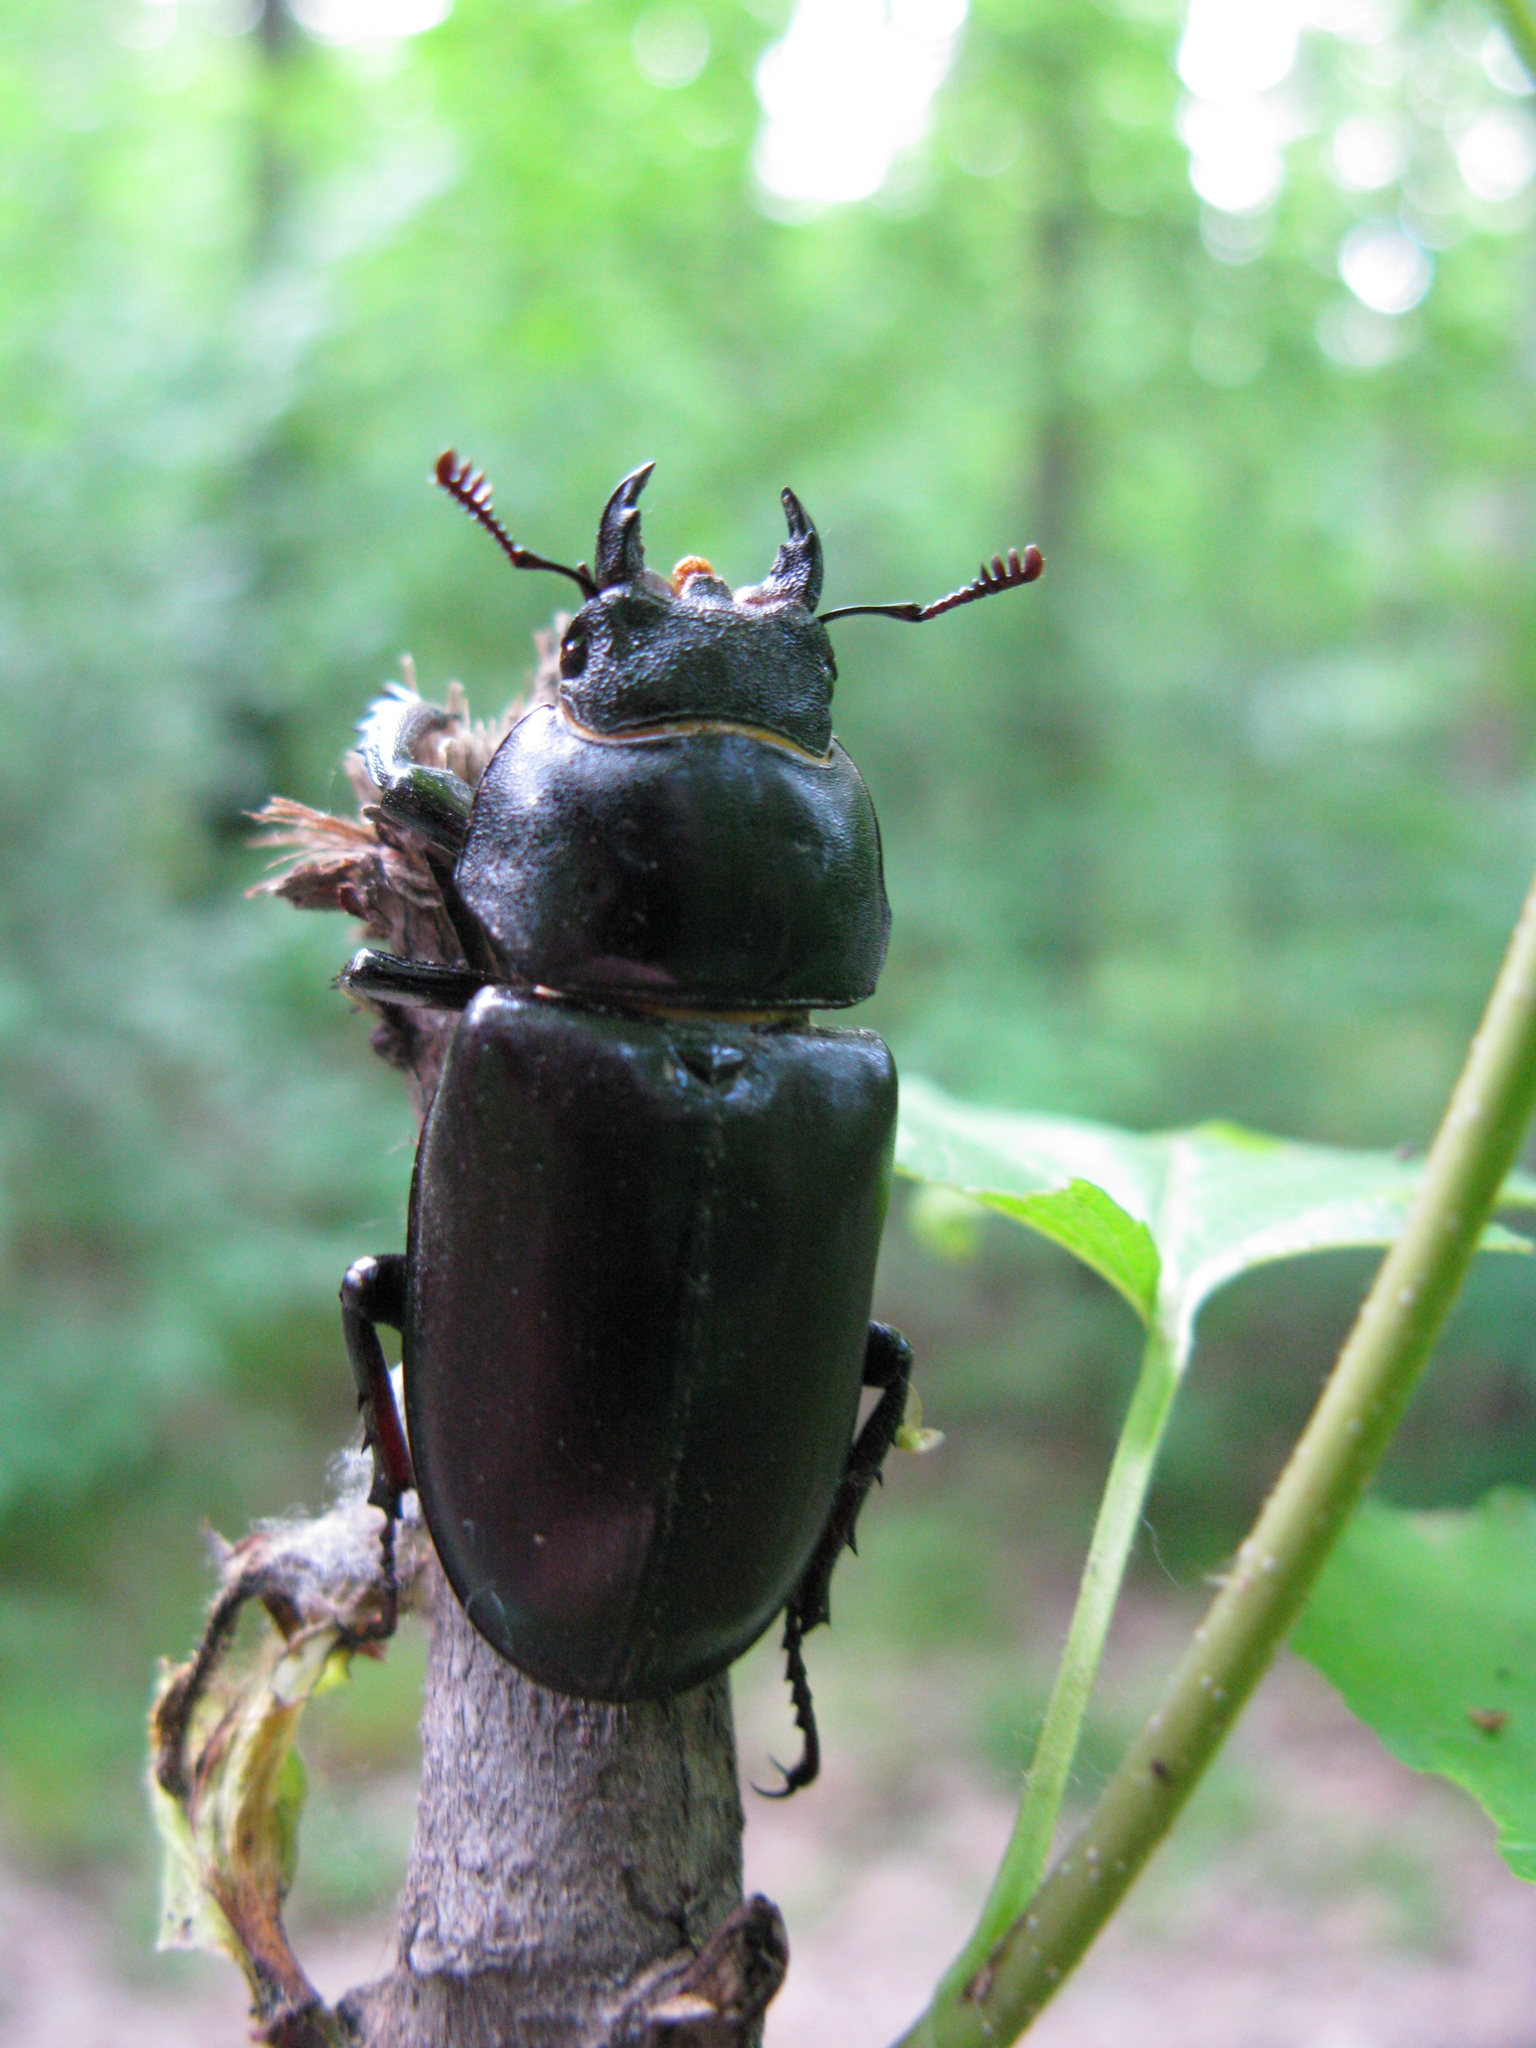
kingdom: Animalia
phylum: Arthropoda
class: Insecta
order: Coleoptera
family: Lucanidae
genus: Lucanus
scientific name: Lucanus cervus
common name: Stag beetle
